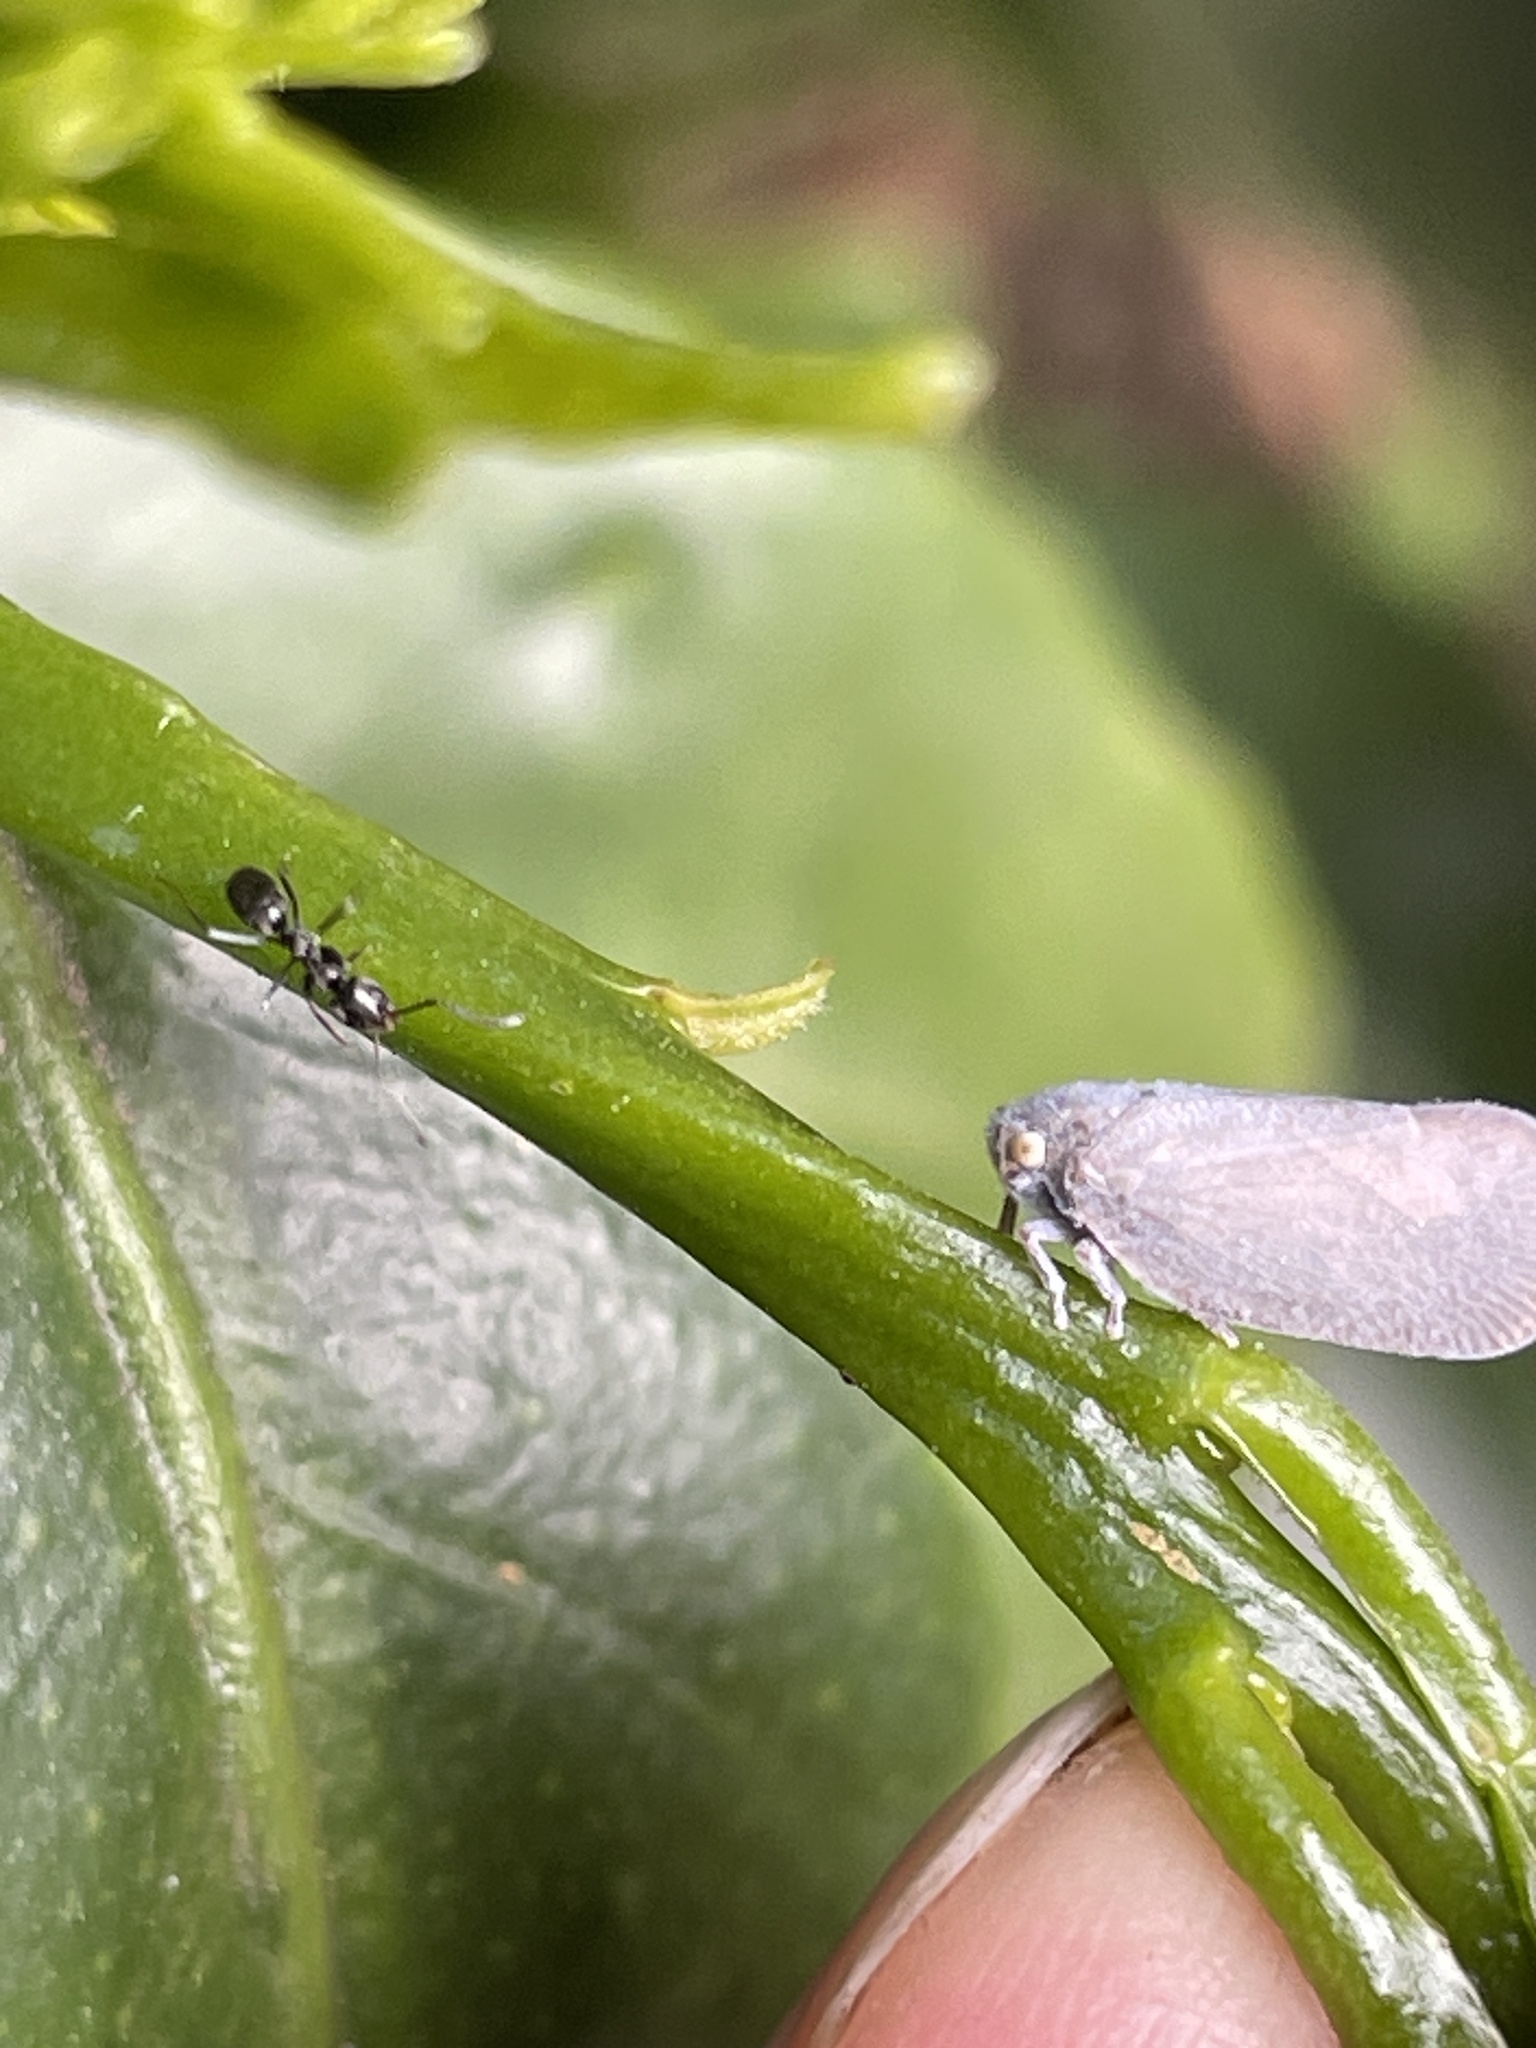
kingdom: Animalia
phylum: Arthropoda
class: Insecta
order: Hemiptera
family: Flatidae
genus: Anzora
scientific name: Anzora unicolor
